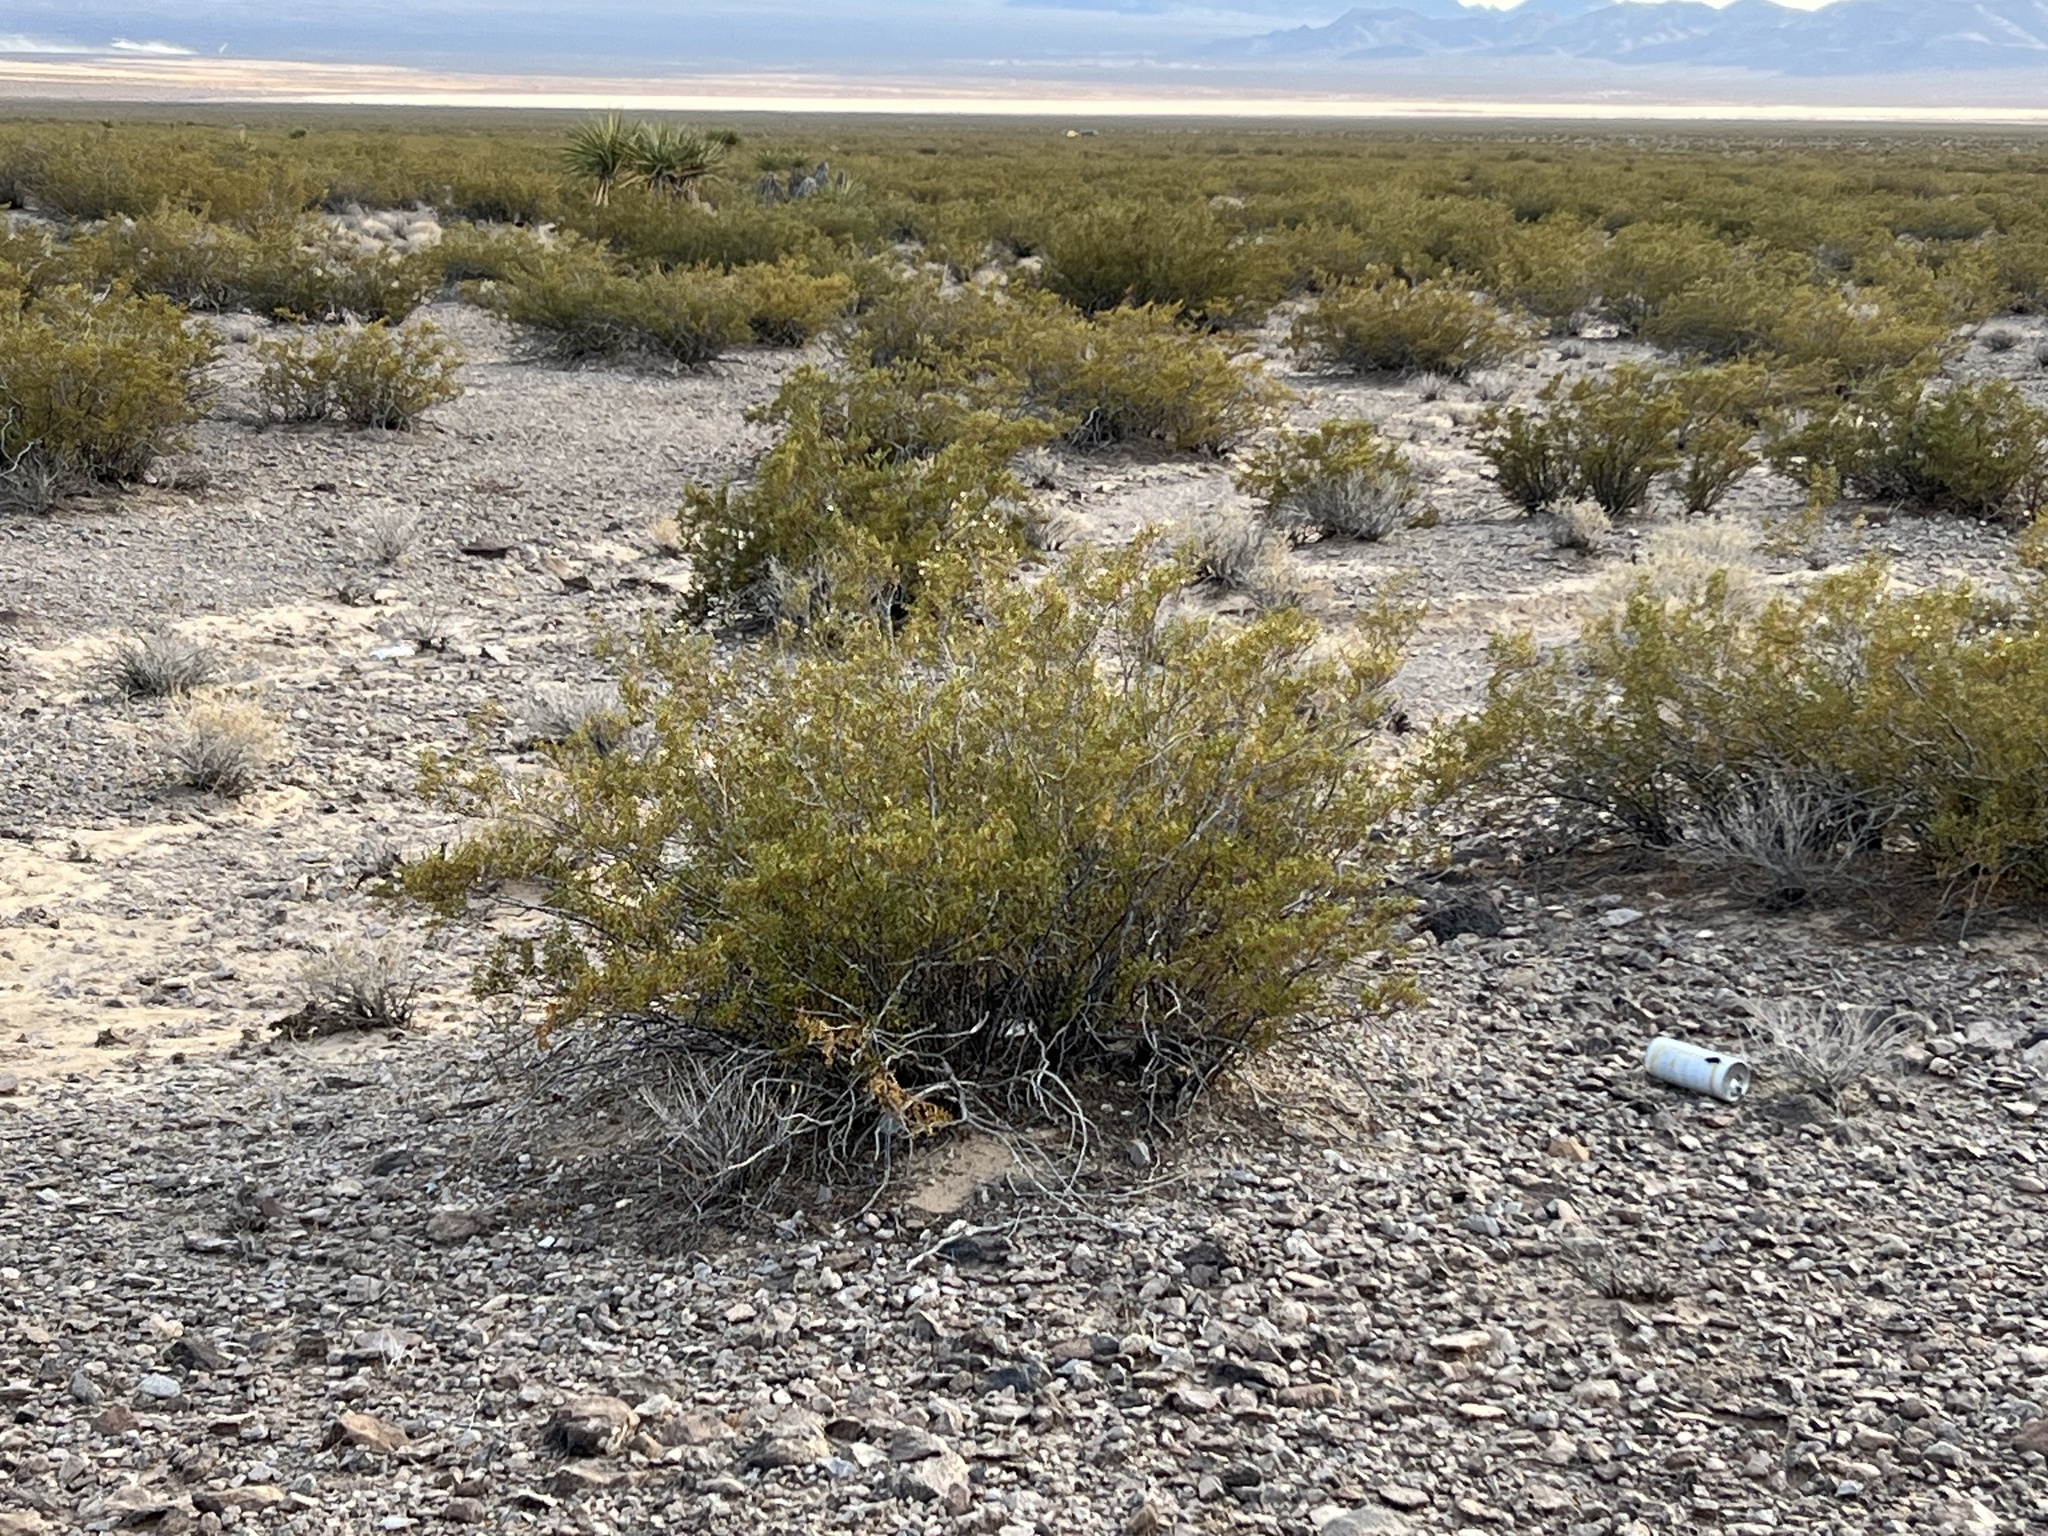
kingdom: Plantae
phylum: Tracheophyta
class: Magnoliopsida
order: Zygophyllales
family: Zygophyllaceae
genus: Larrea
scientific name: Larrea tridentata
